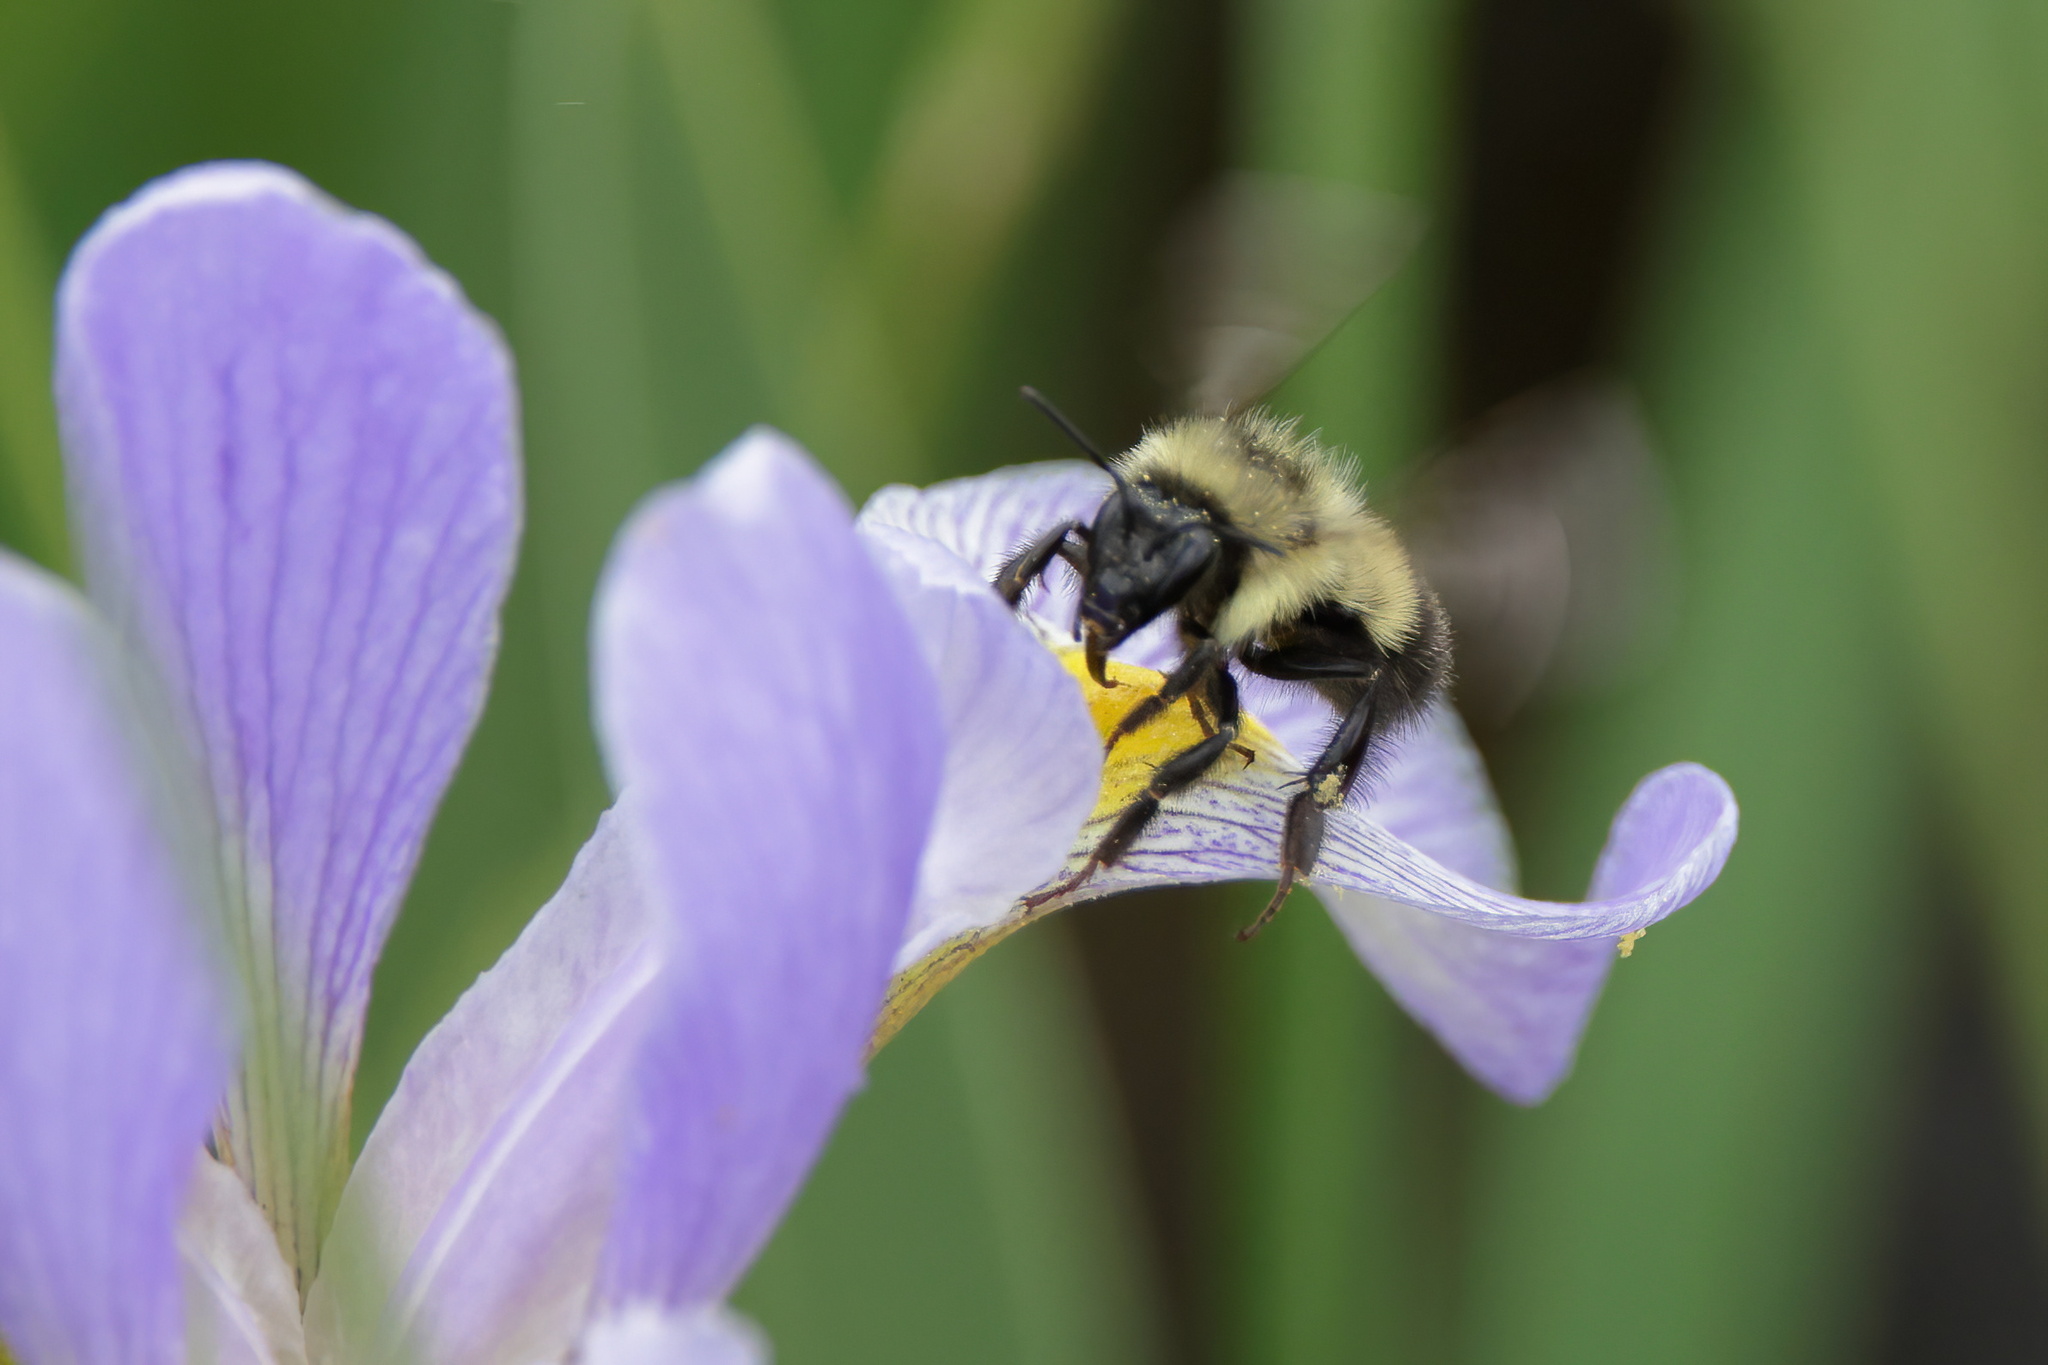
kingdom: Animalia
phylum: Arthropoda
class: Insecta
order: Hymenoptera
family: Apidae
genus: Bombus
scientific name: Bombus vagans
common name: Half-black bumble bee
